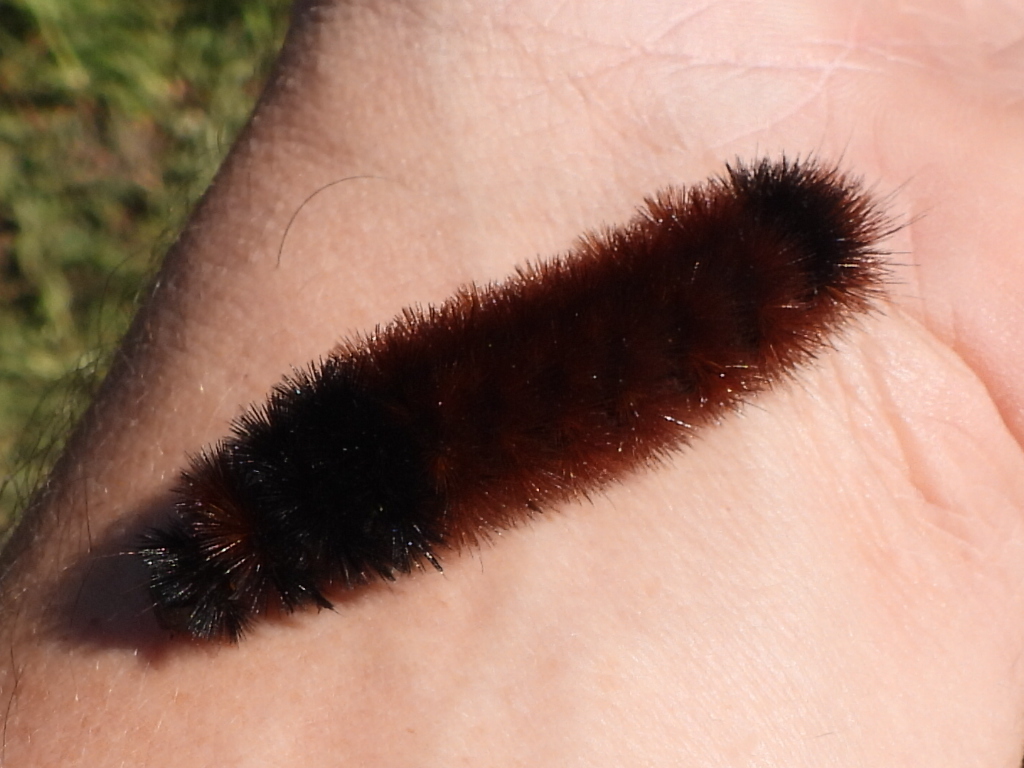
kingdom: Animalia
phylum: Arthropoda
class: Insecta
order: Lepidoptera
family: Erebidae
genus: Pyrrharctia
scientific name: Pyrrharctia isabella
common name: Isabella tiger moth
